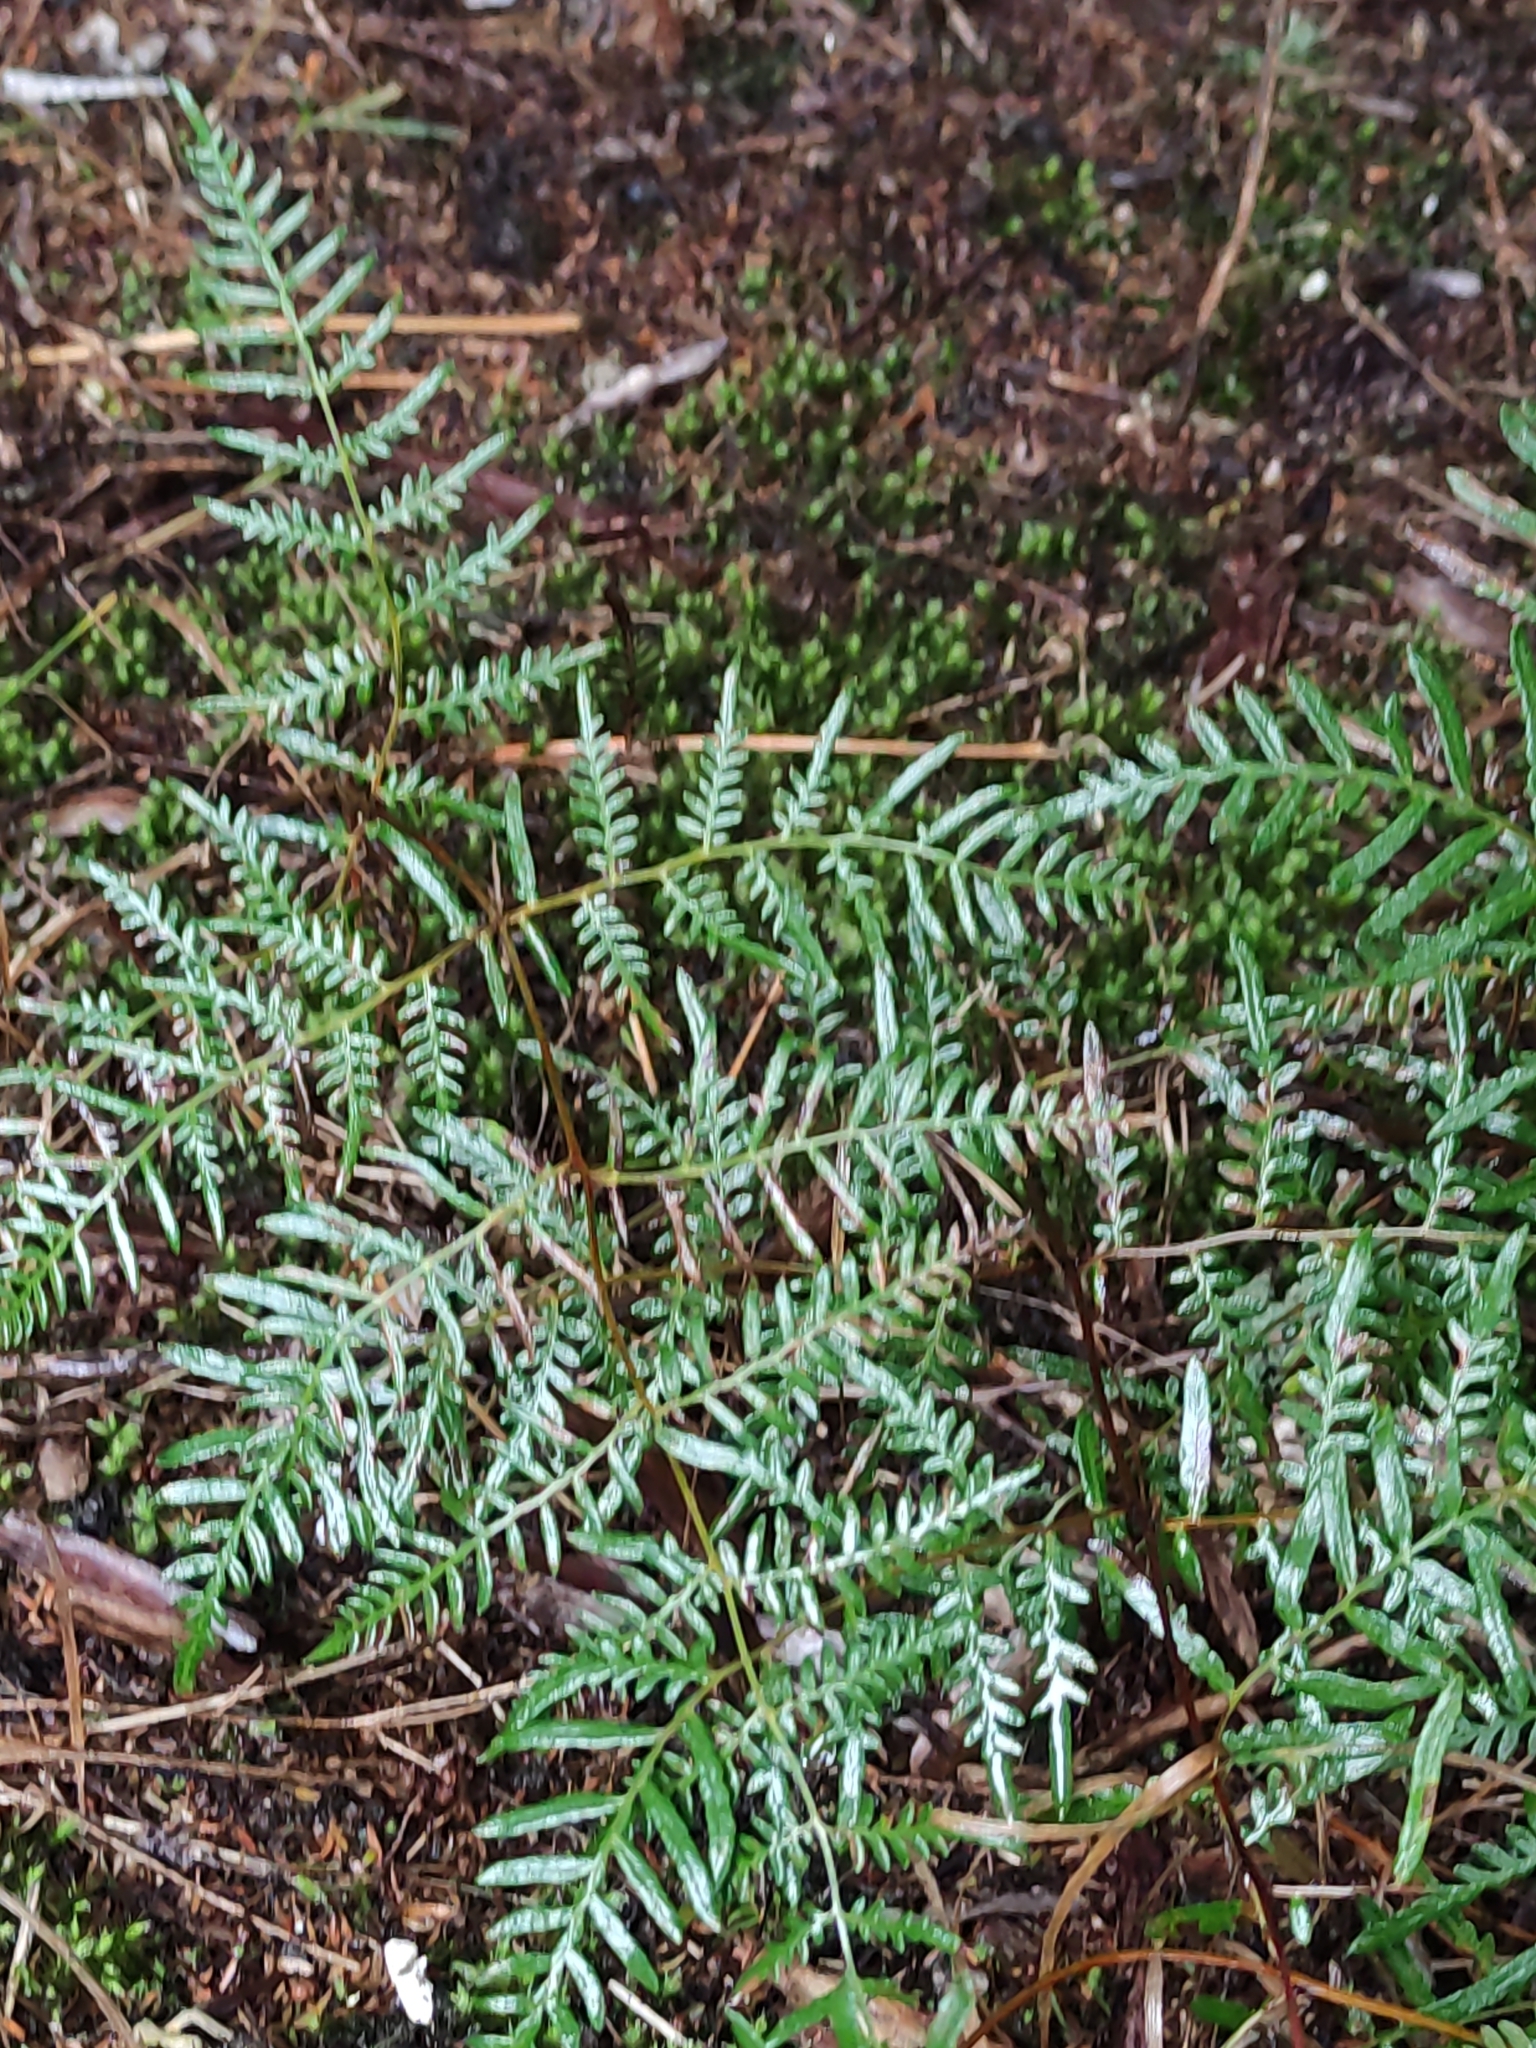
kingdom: Plantae
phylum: Tracheophyta
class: Polypodiopsida
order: Polypodiales
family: Dennstaedtiaceae
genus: Pteridium
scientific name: Pteridium esculentum
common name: Bracken fern
